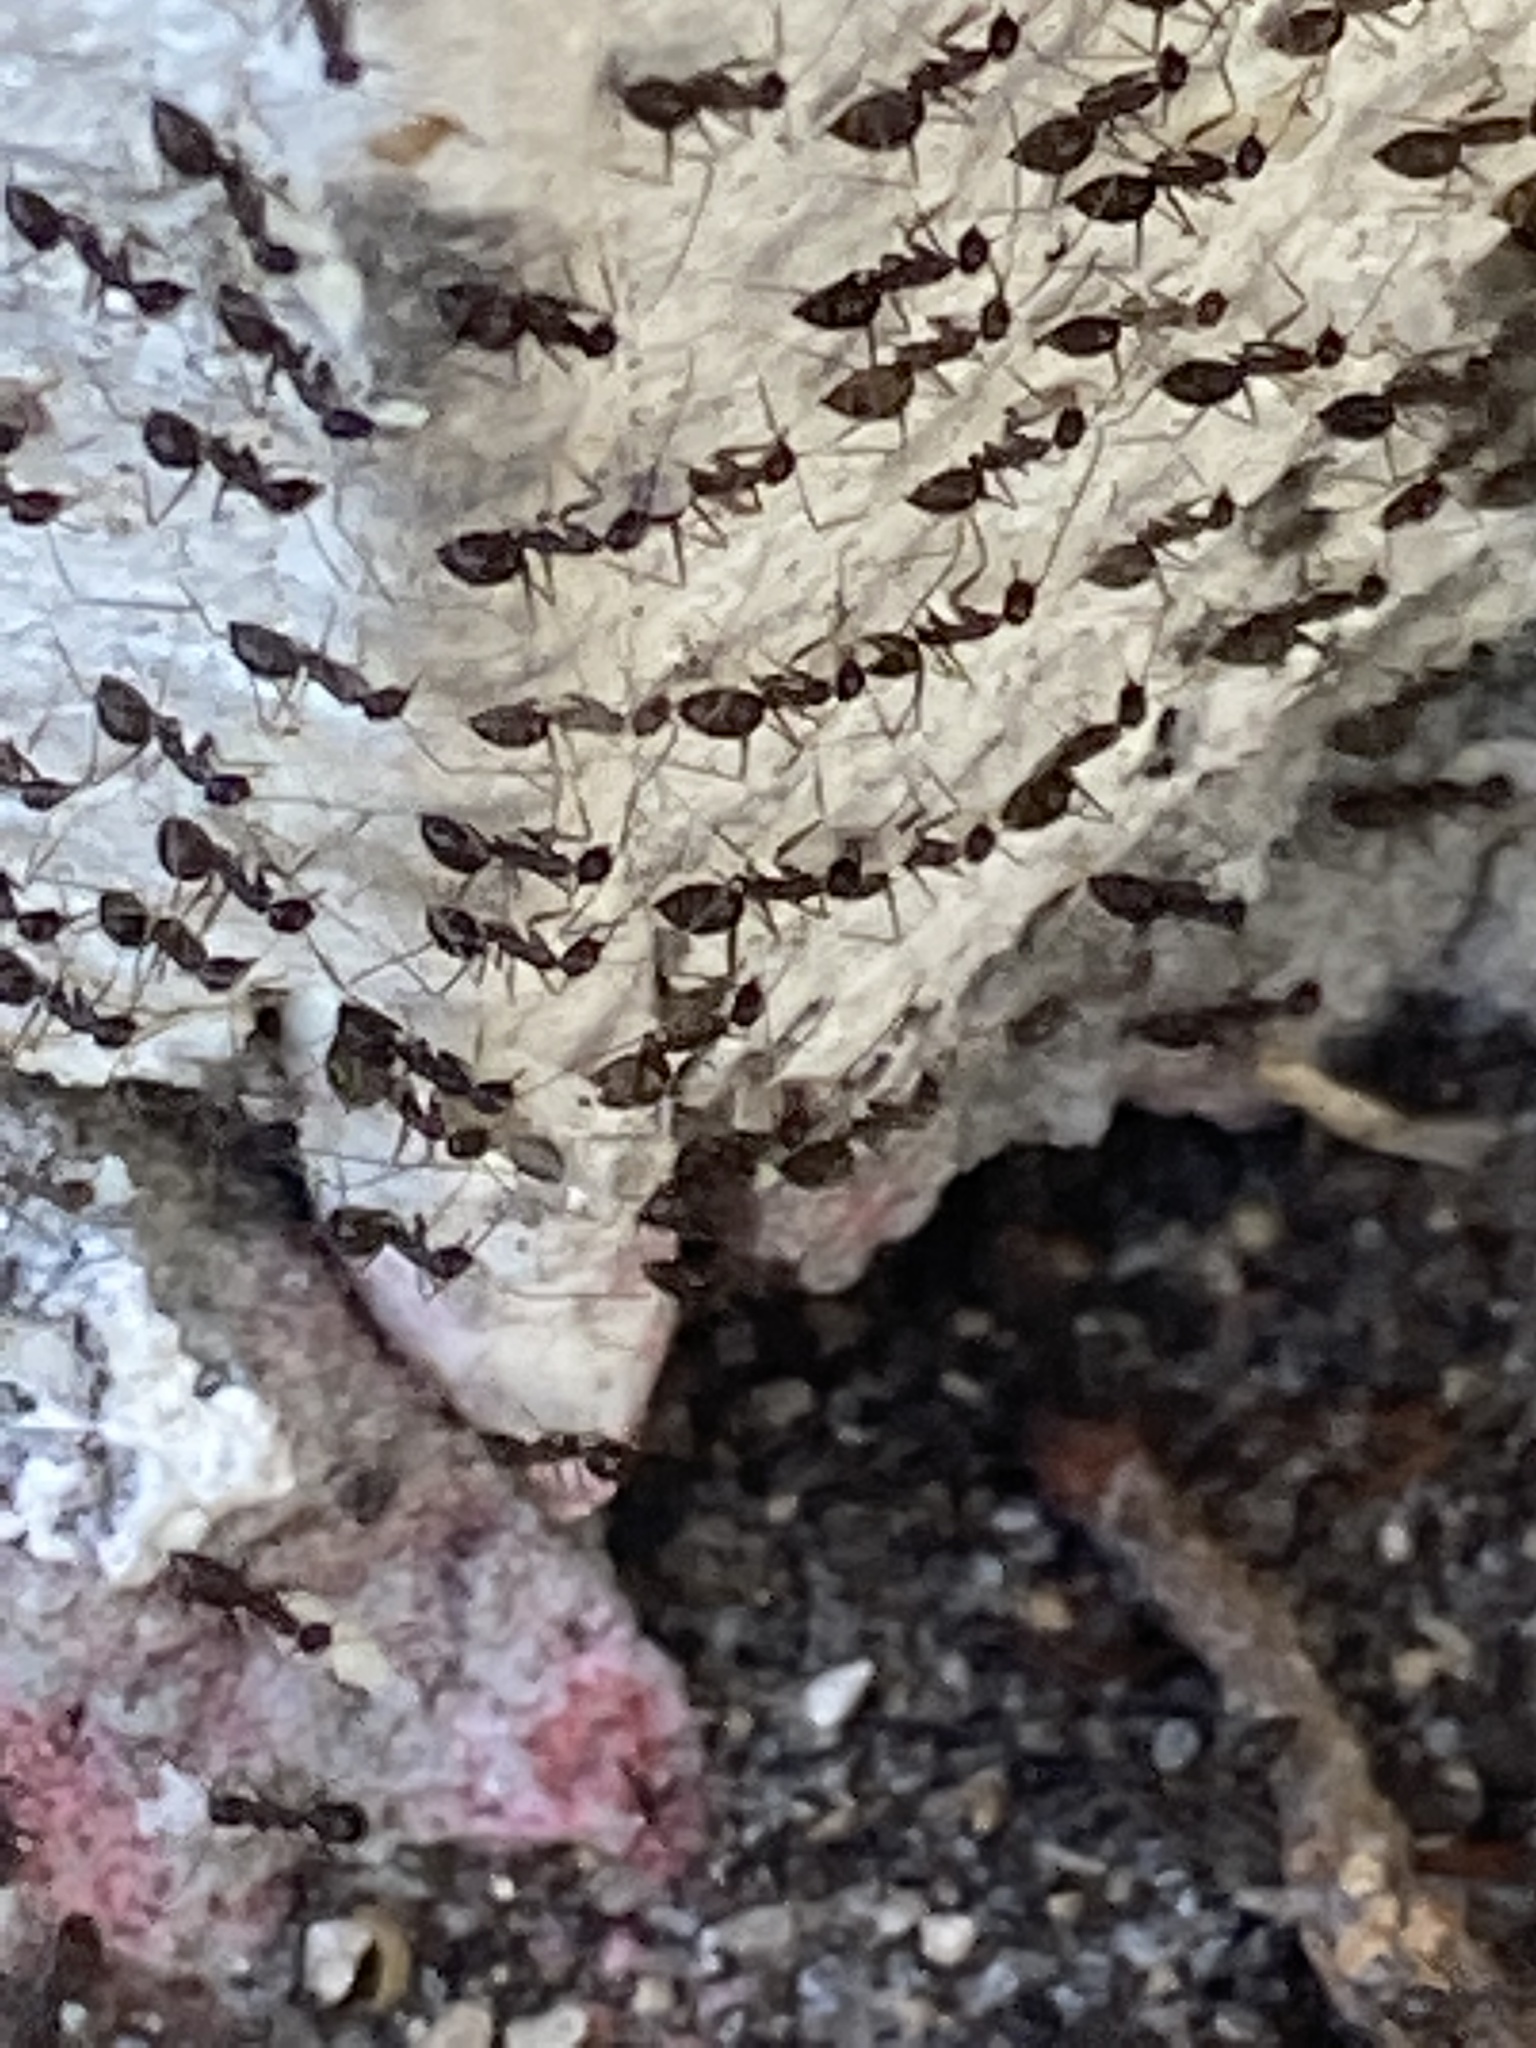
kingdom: Animalia
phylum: Arthropoda
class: Insecta
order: Hymenoptera
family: Formicidae
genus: Paratrechina
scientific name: Paratrechina longicornis
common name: Longhorned crazy ant
